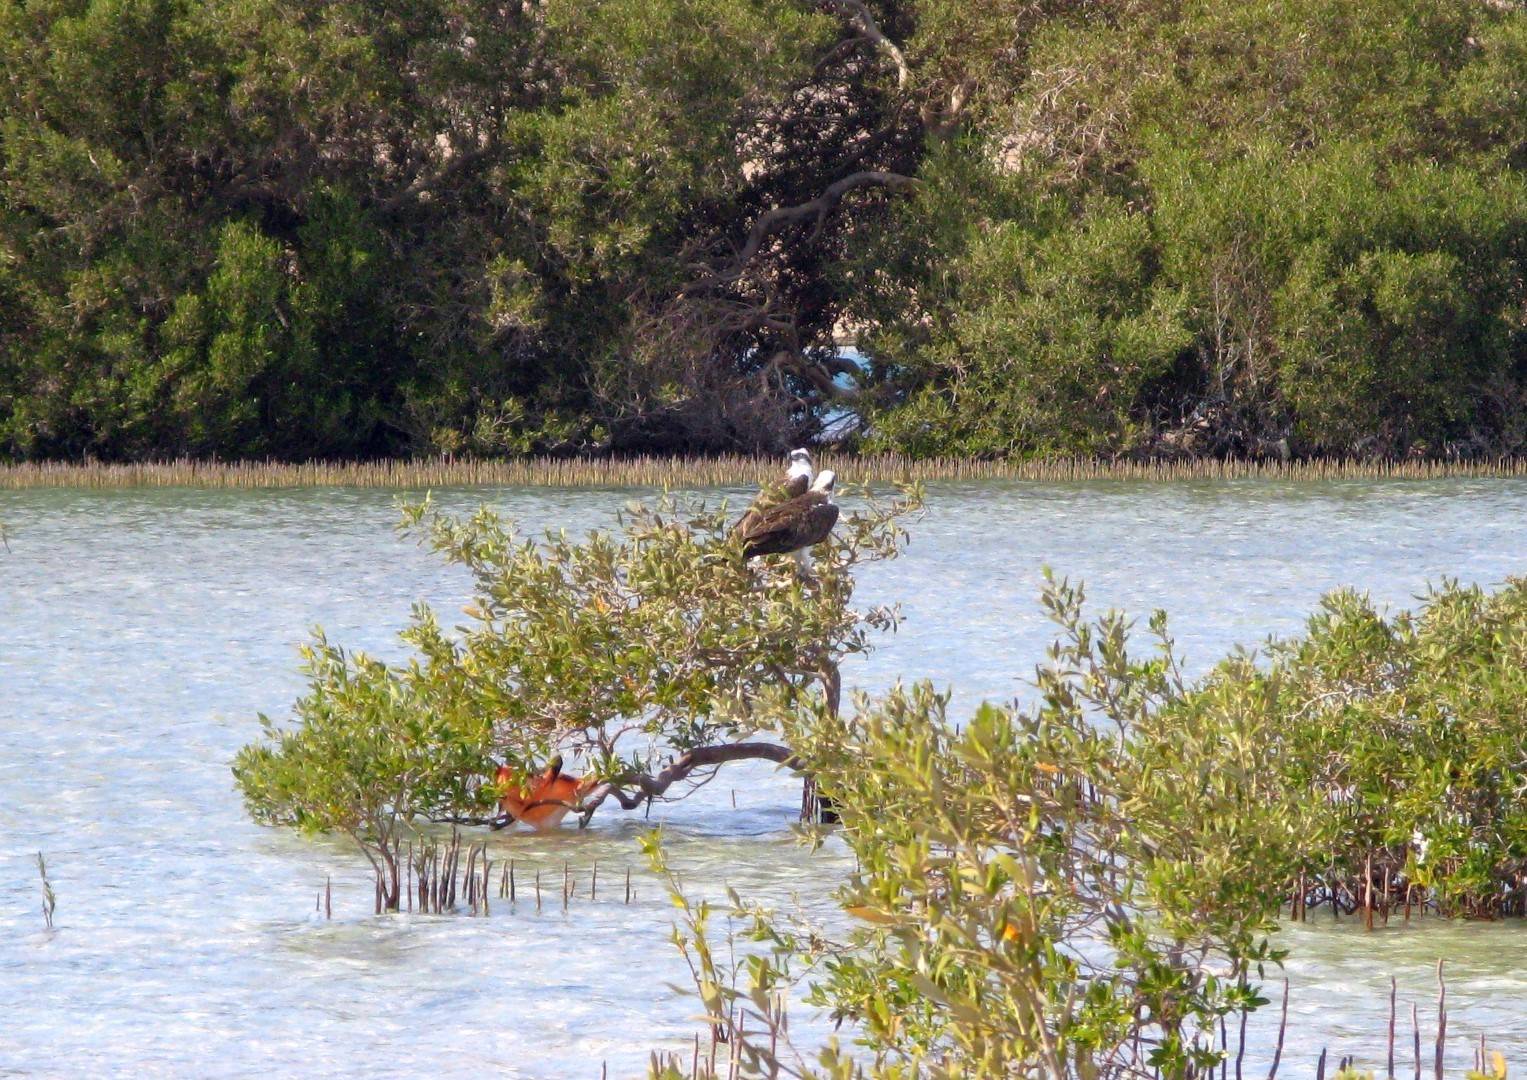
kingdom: Animalia
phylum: Chordata
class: Aves
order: Accipitriformes
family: Pandionidae
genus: Pandion
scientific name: Pandion haliaetus
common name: Osprey
